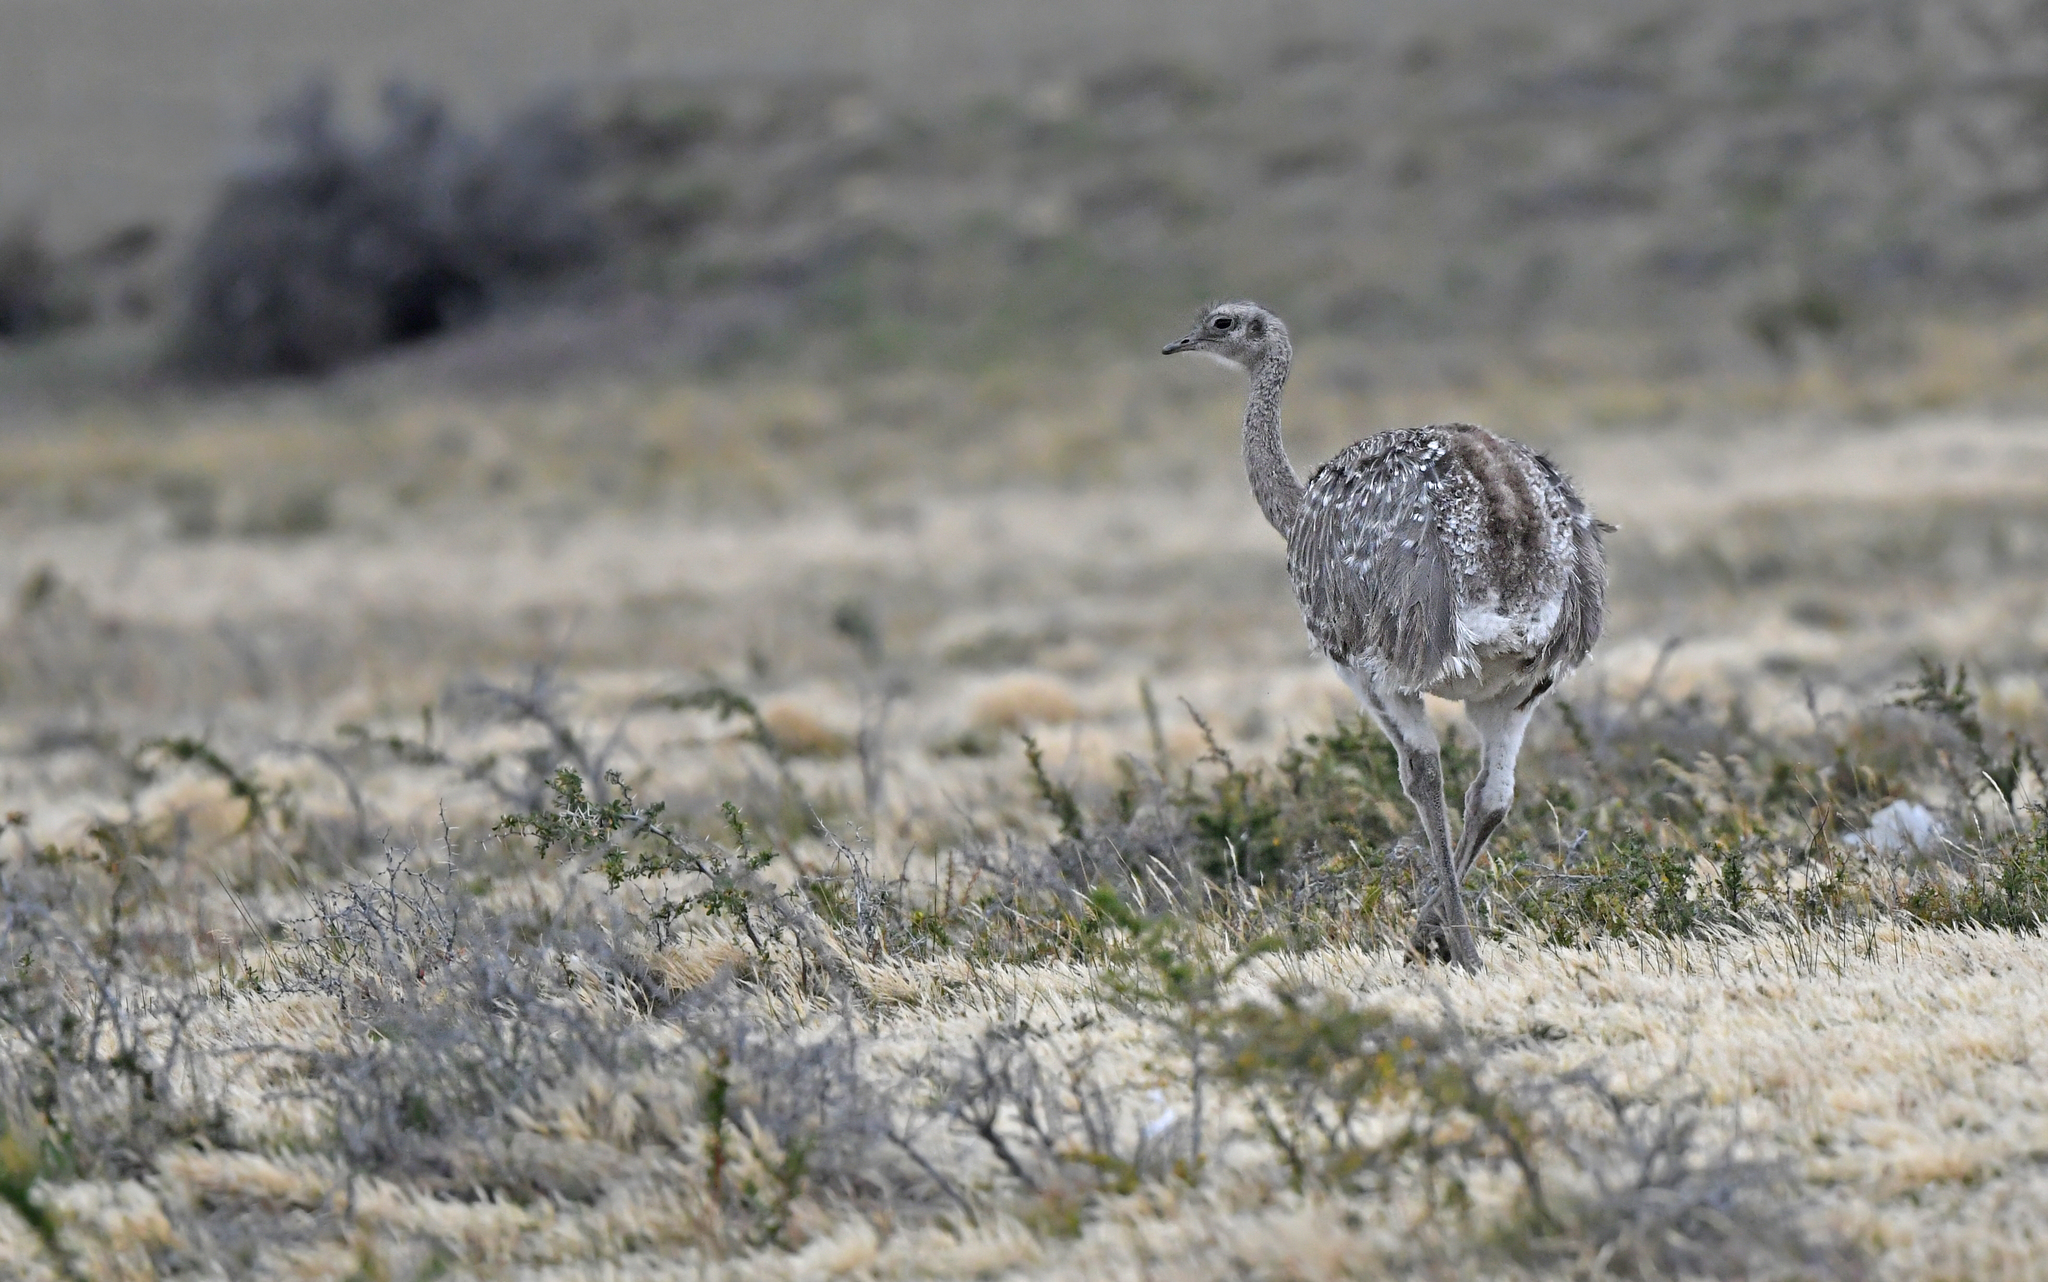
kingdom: Animalia
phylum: Chordata
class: Aves
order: Rheiformes
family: Rheidae
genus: Rhea
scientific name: Rhea pennata
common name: Lesser rhea
